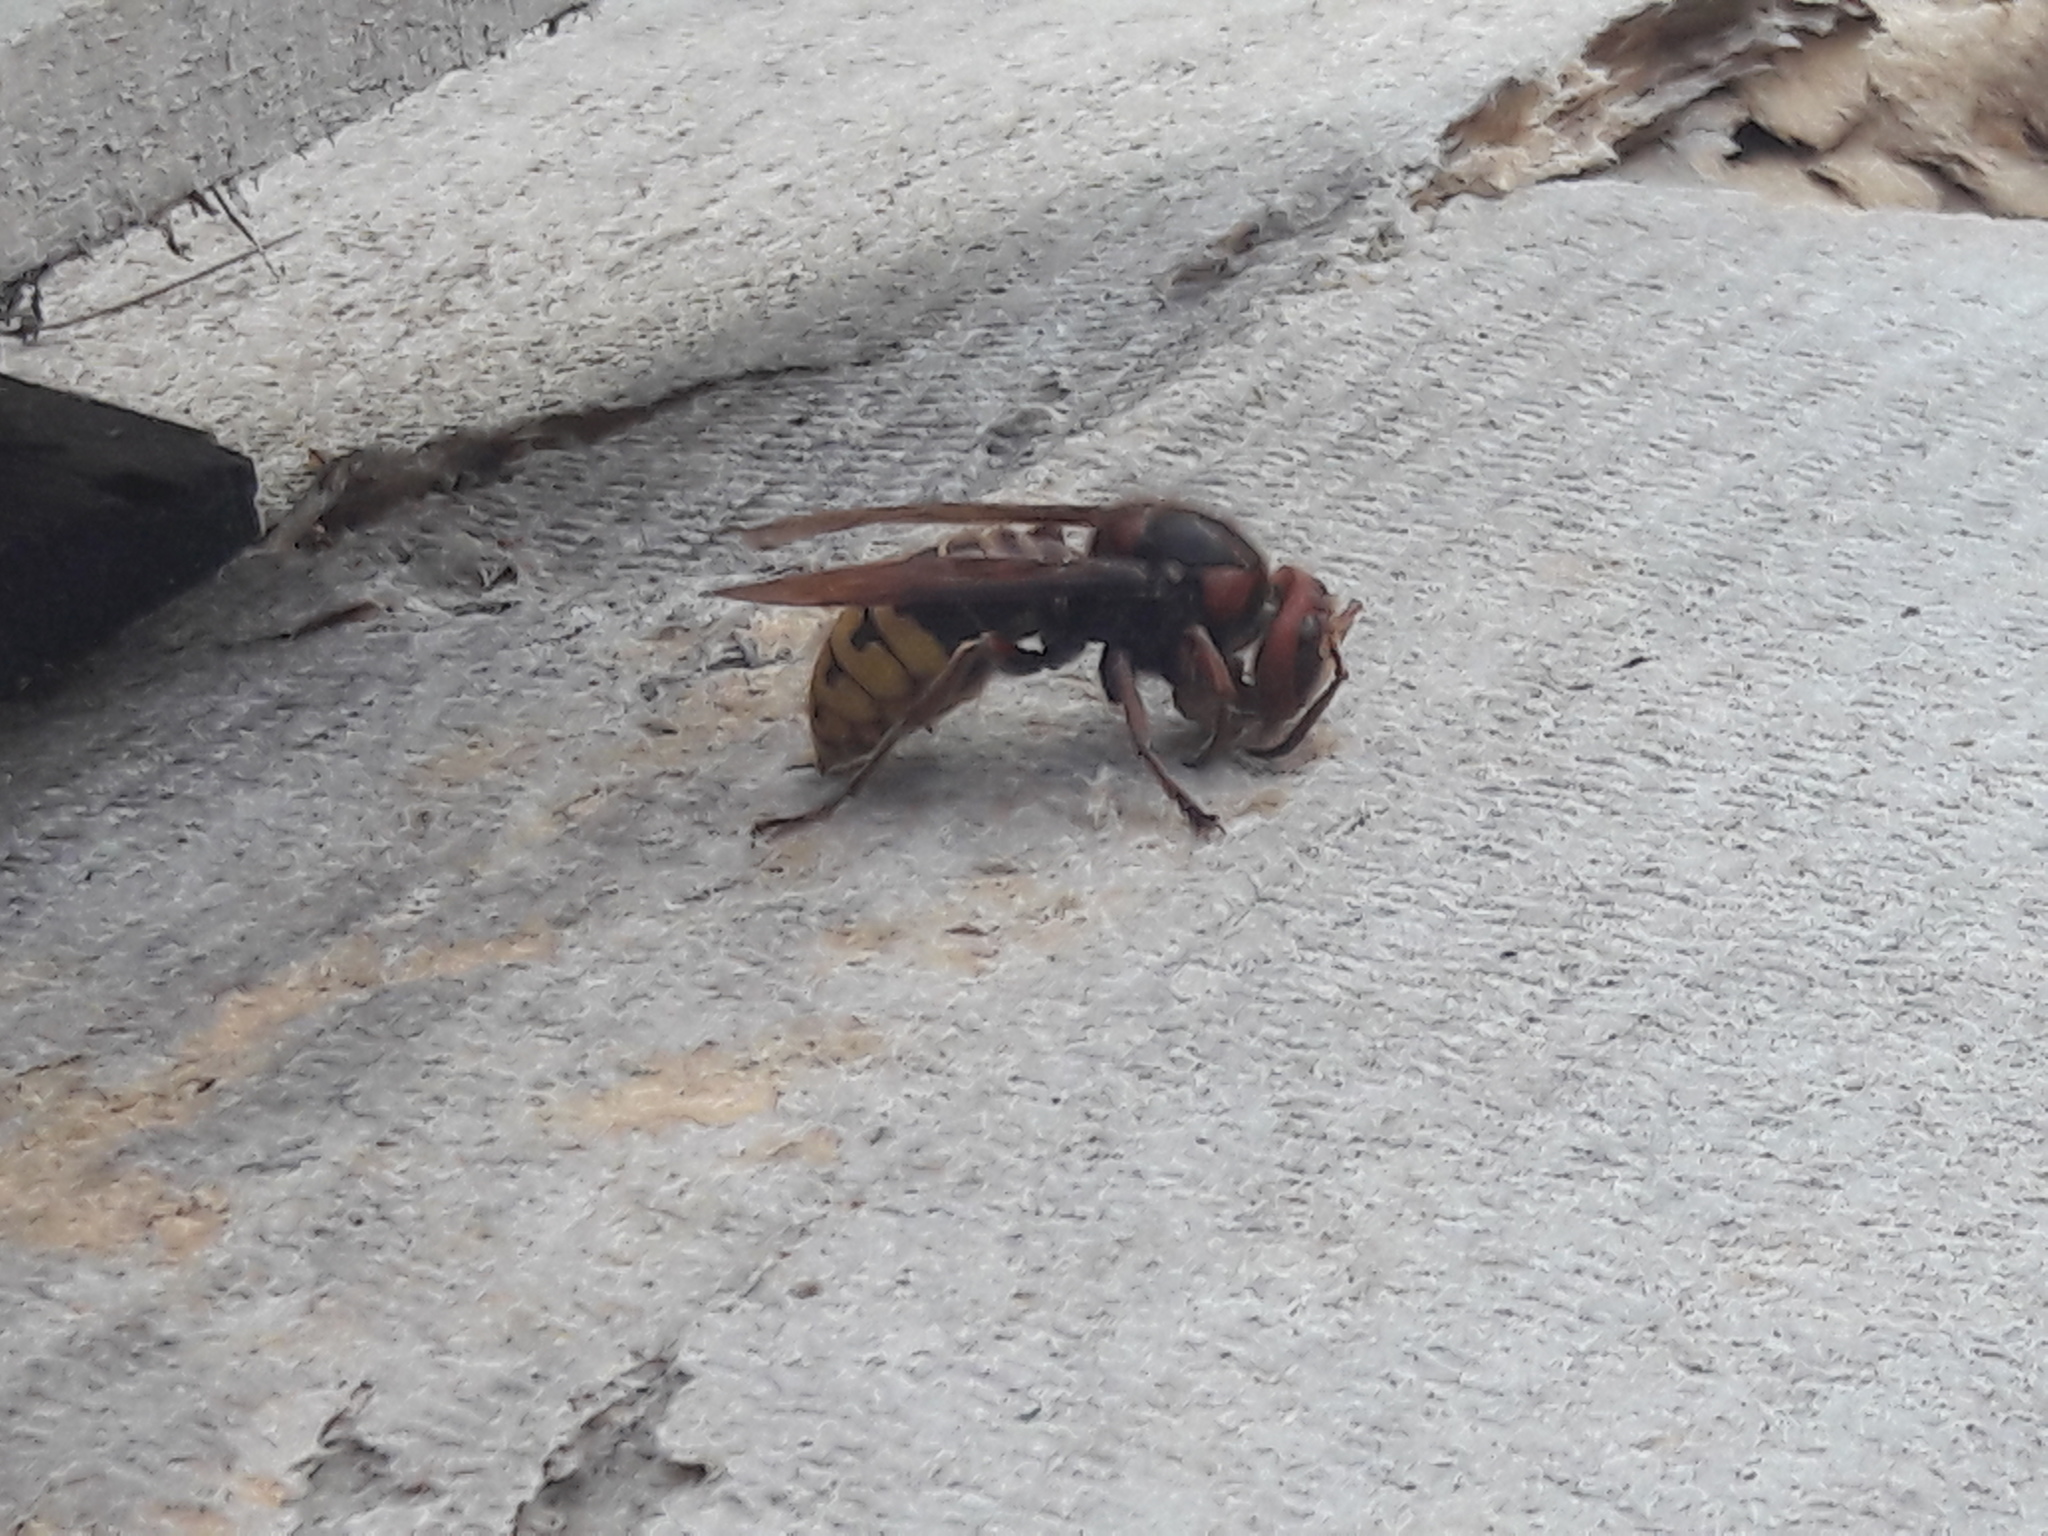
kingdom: Animalia
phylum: Arthropoda
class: Insecta
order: Hymenoptera
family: Vespidae
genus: Vespa
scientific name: Vespa crabro
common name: Hornet
